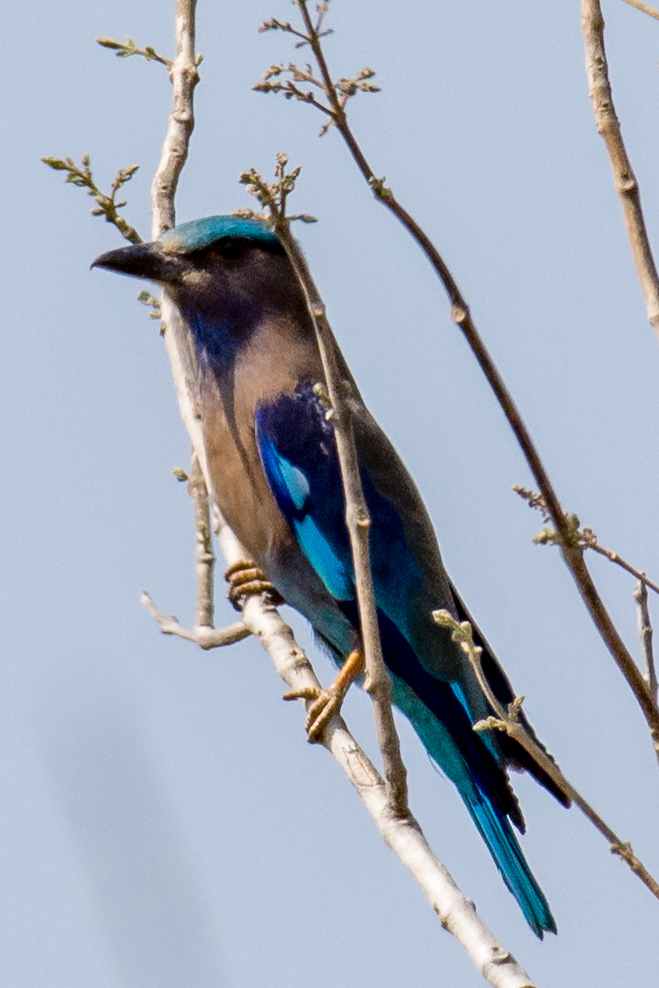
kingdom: Animalia
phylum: Chordata
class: Aves
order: Coraciiformes
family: Coraciidae
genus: Coracias
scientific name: Coracias affinis
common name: Indochinese roller
